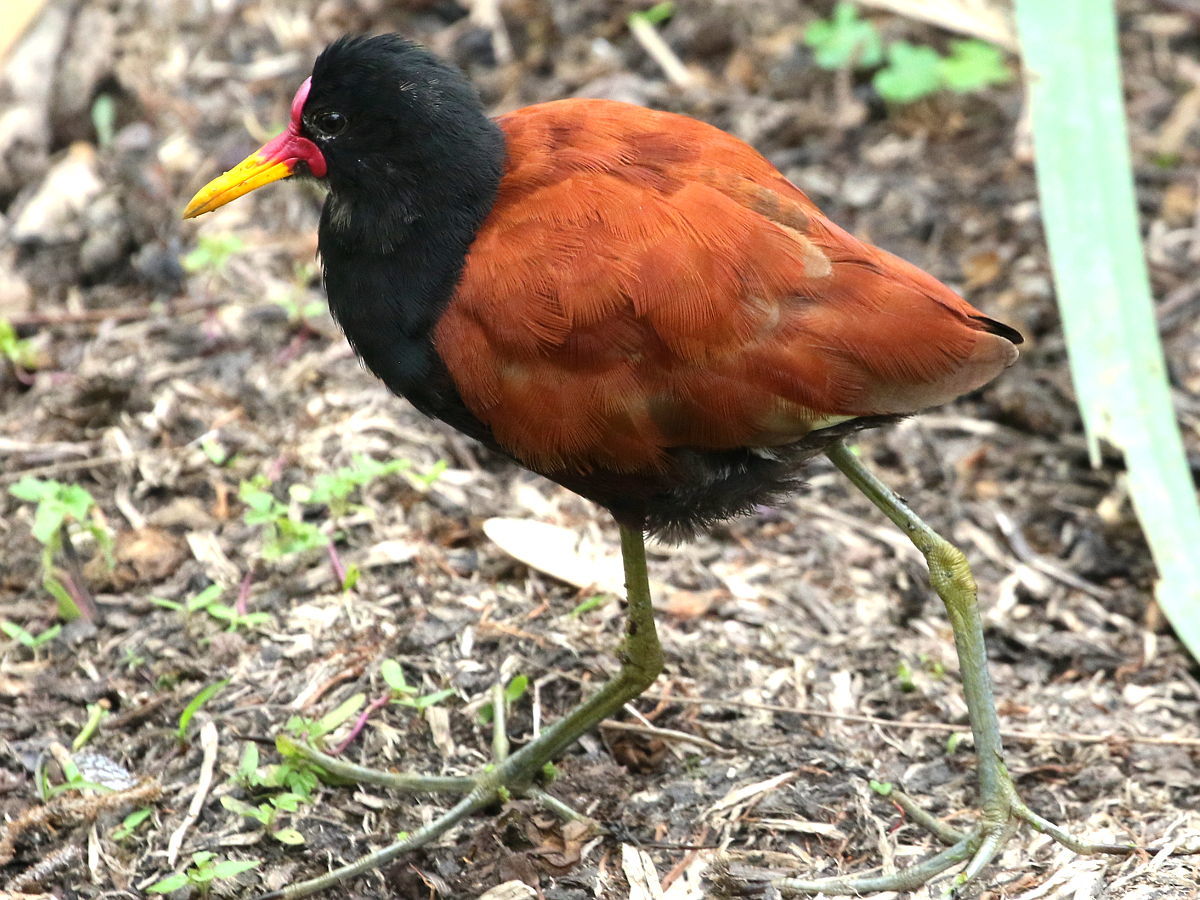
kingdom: Animalia
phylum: Chordata
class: Aves
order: Charadriiformes
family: Jacanidae
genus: Jacana
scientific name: Jacana jacana
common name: Wattled jacana
